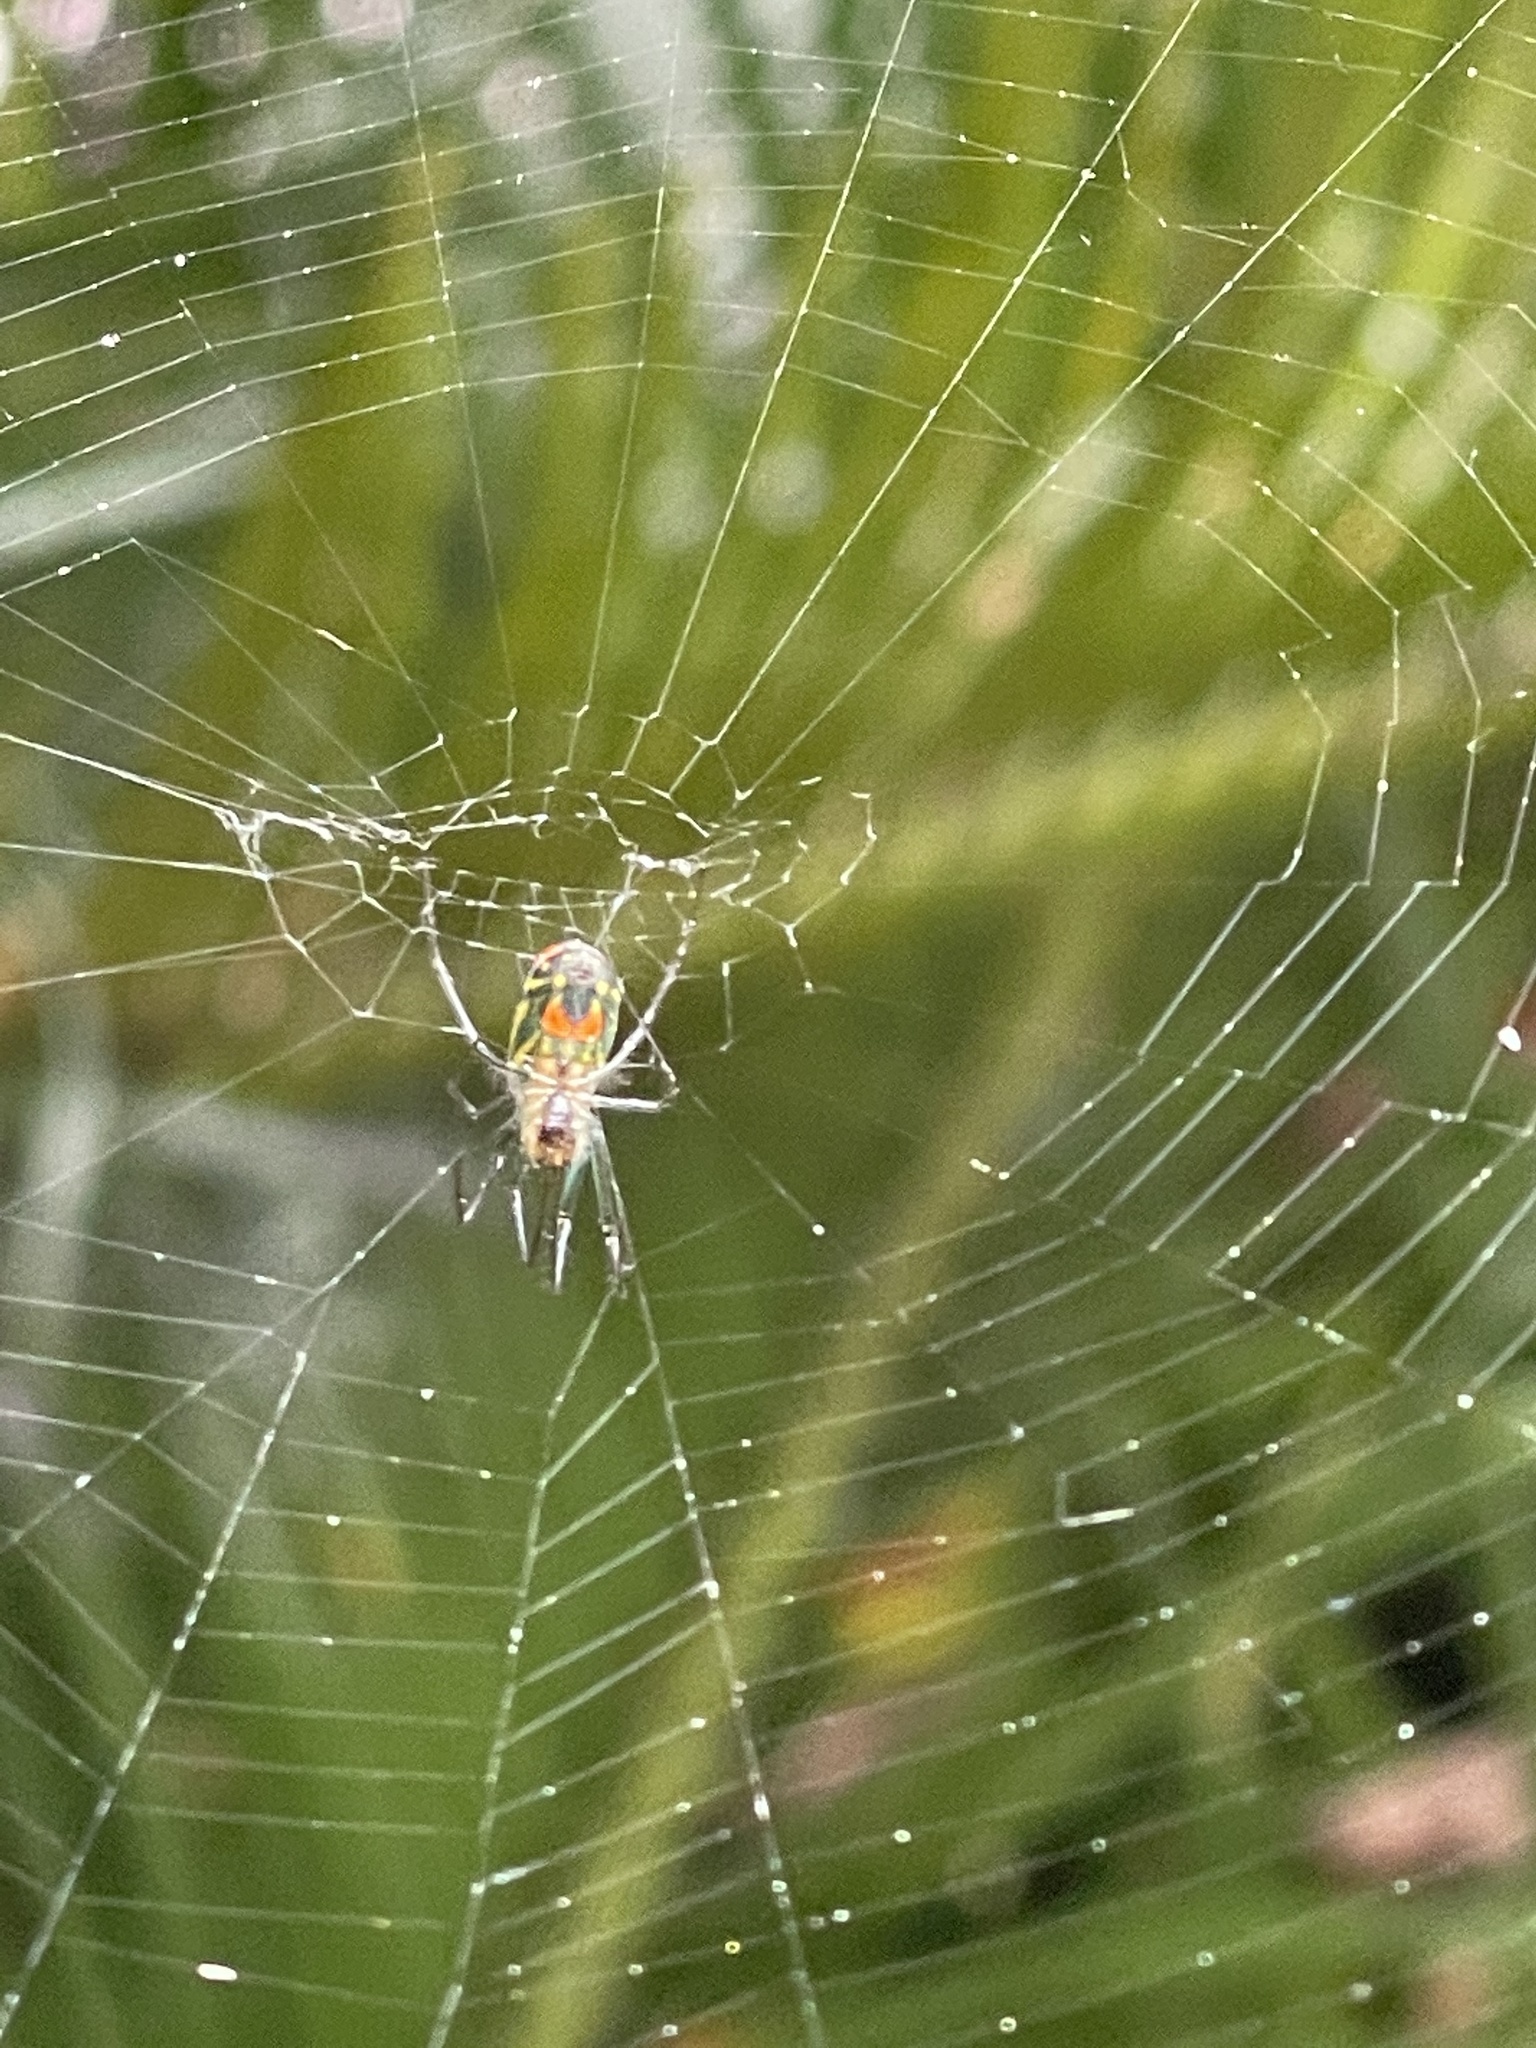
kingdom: Animalia
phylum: Arthropoda
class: Arachnida
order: Araneae
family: Tetragnathidae
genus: Leucauge
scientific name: Leucauge argyrobapta
